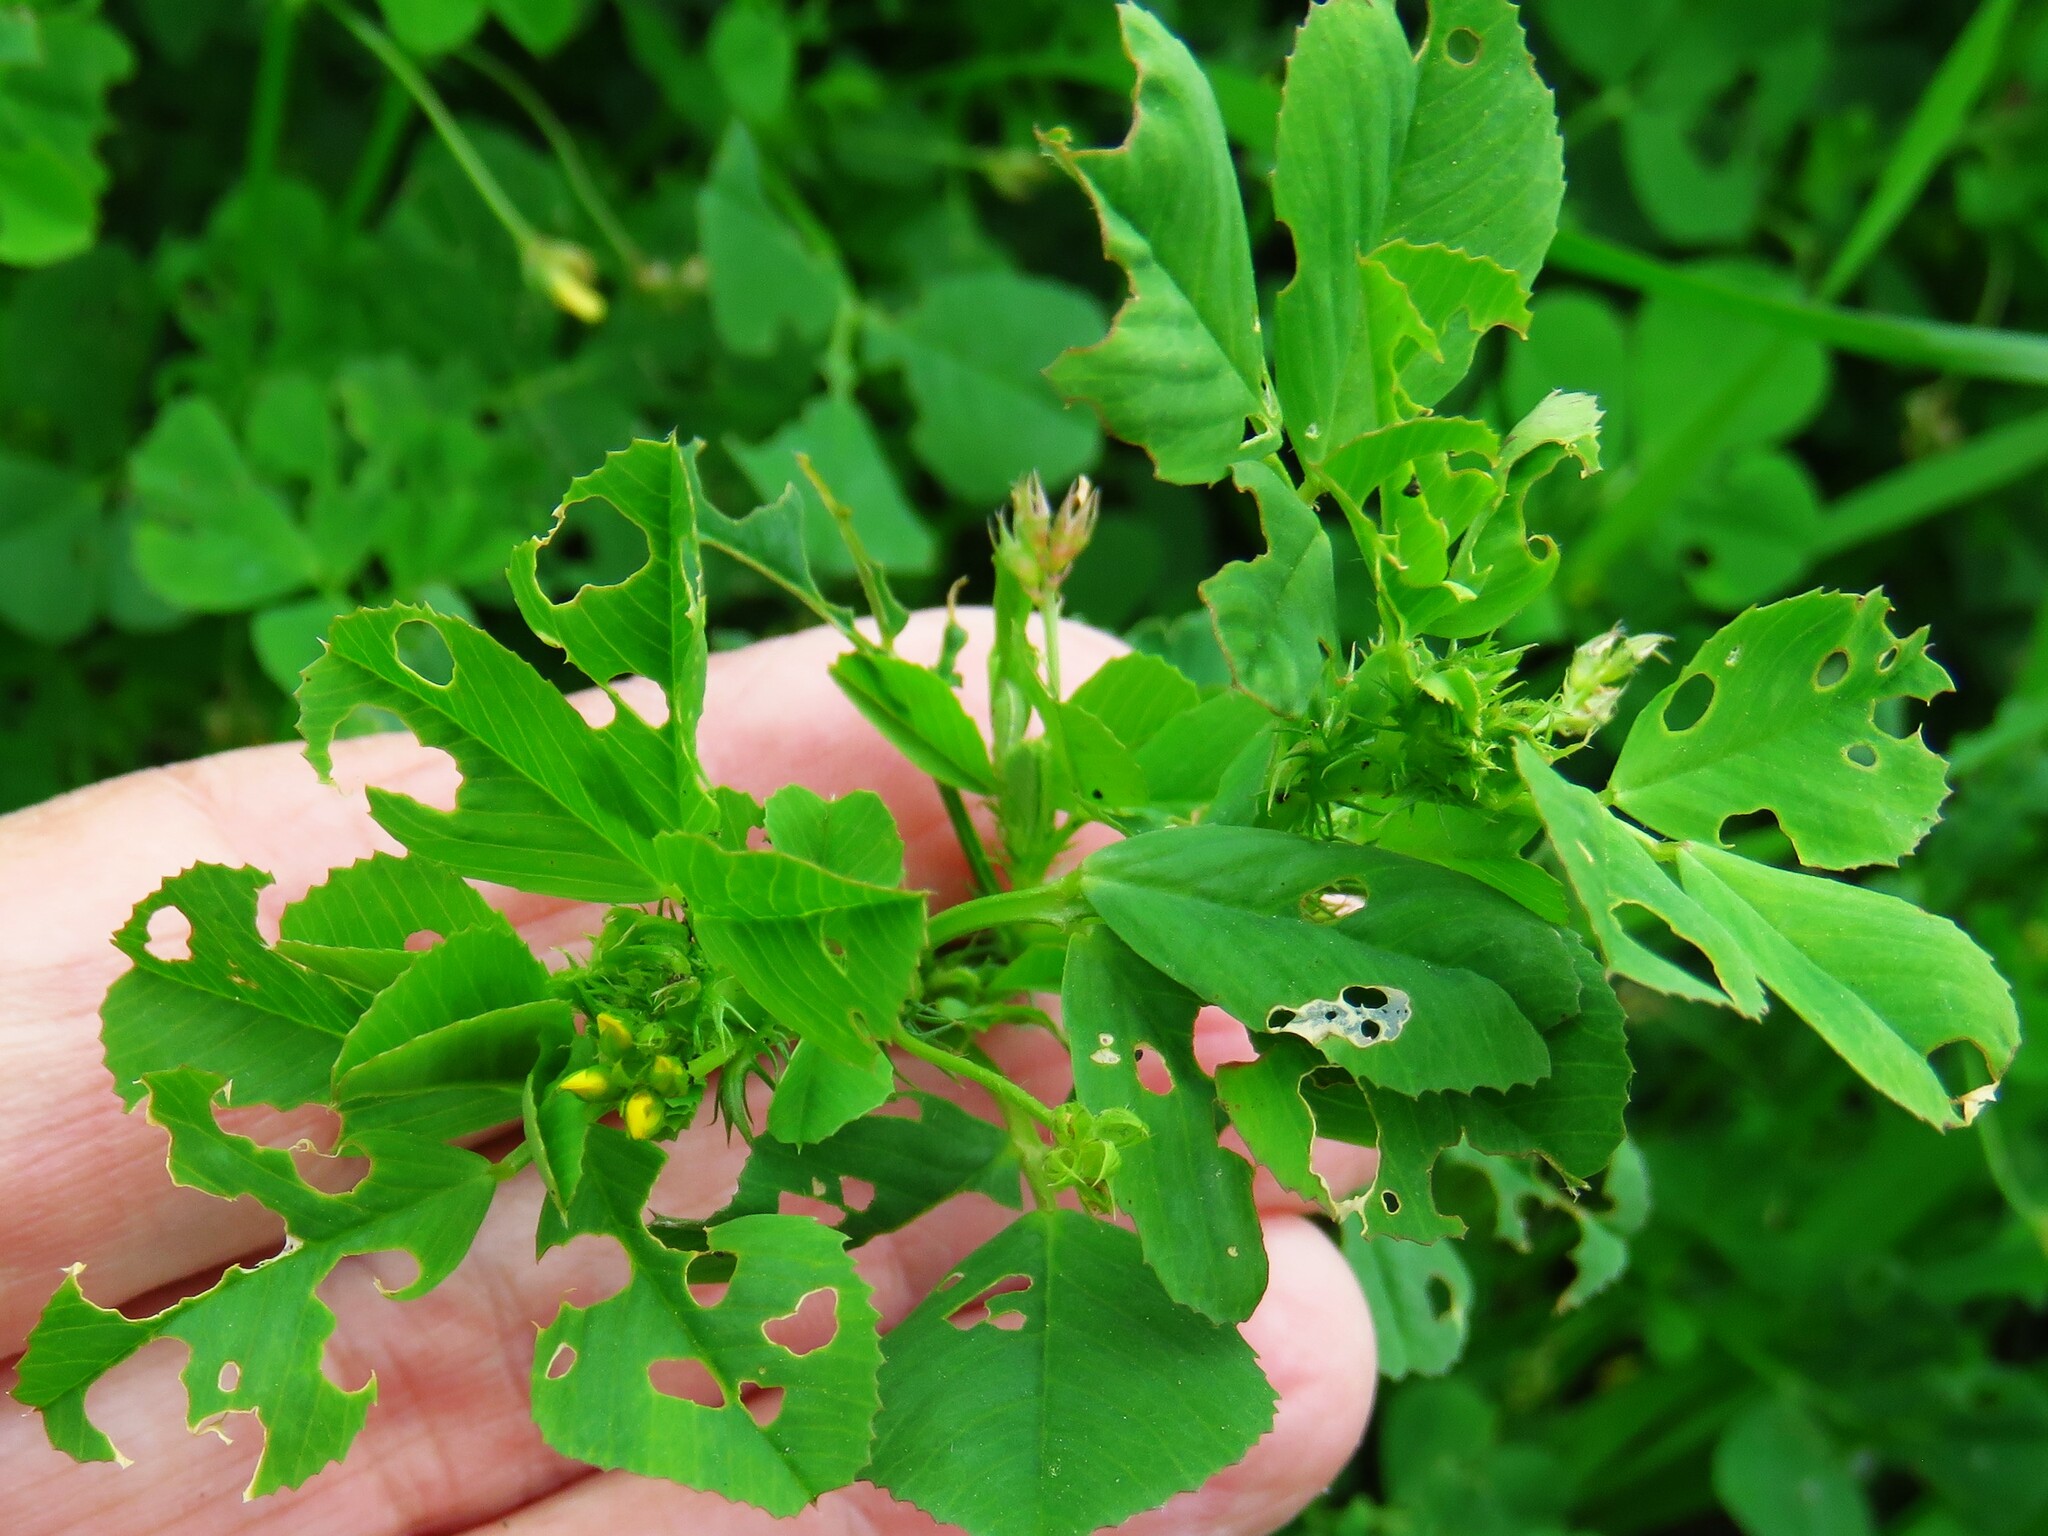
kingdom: Plantae
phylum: Tracheophyta
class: Magnoliopsida
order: Fabales
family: Fabaceae
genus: Medicago
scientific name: Medicago polymorpha
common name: Burclover
